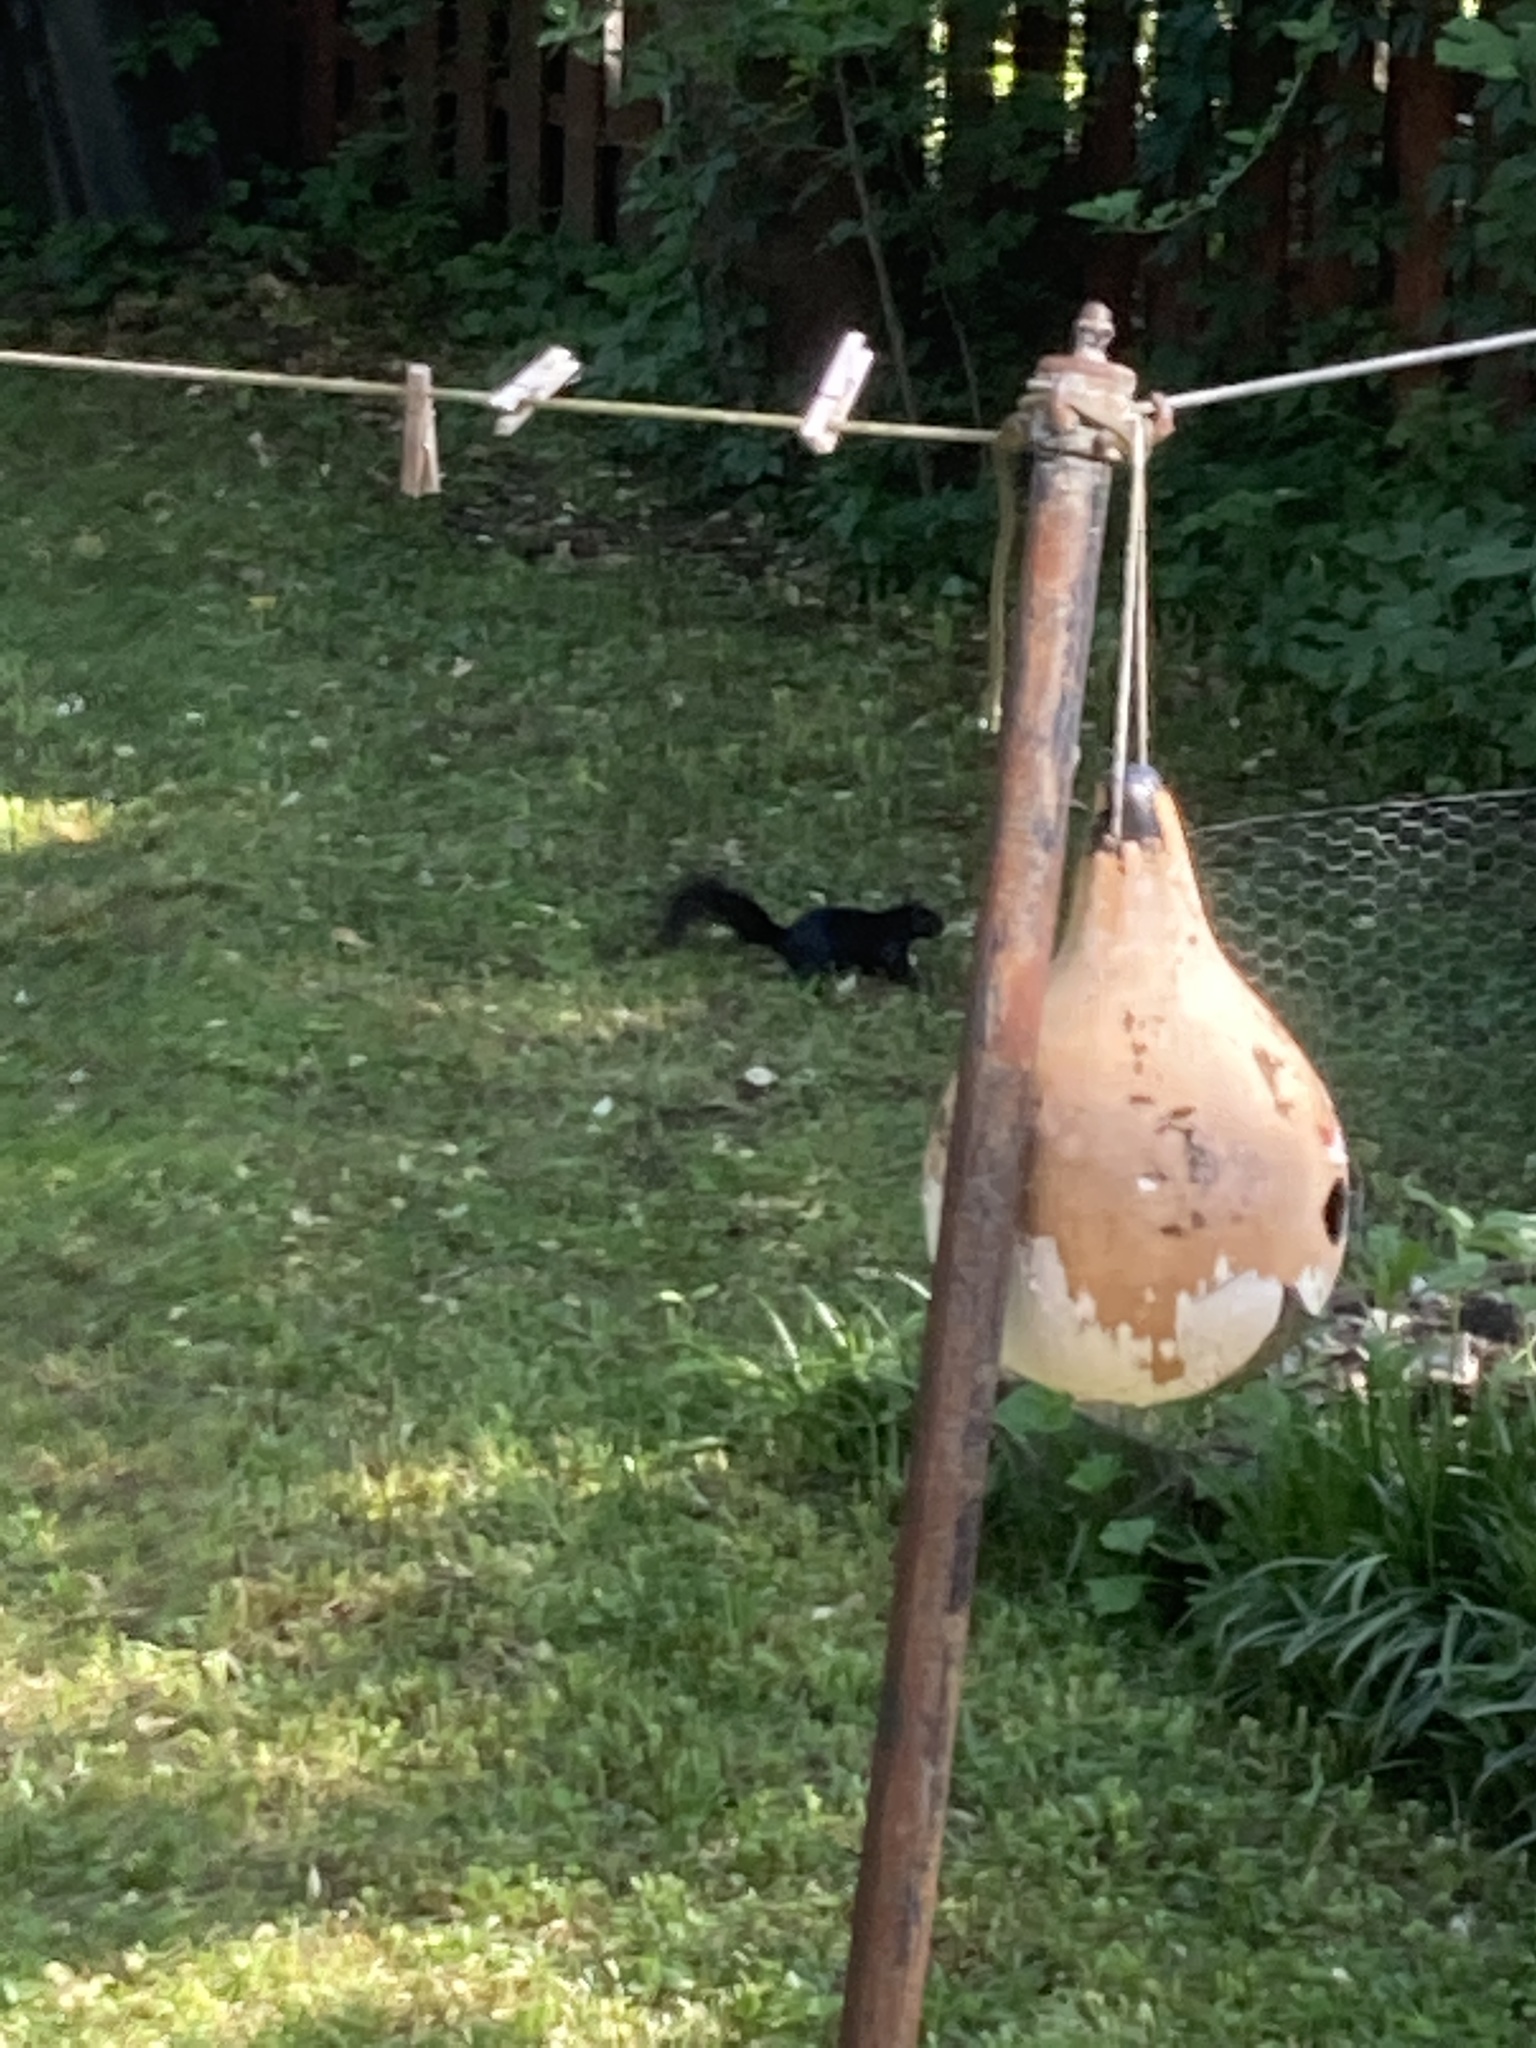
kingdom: Animalia
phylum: Chordata
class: Mammalia
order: Rodentia
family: Sciuridae
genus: Sciurus
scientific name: Sciurus carolinensis
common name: Eastern gray squirrel
